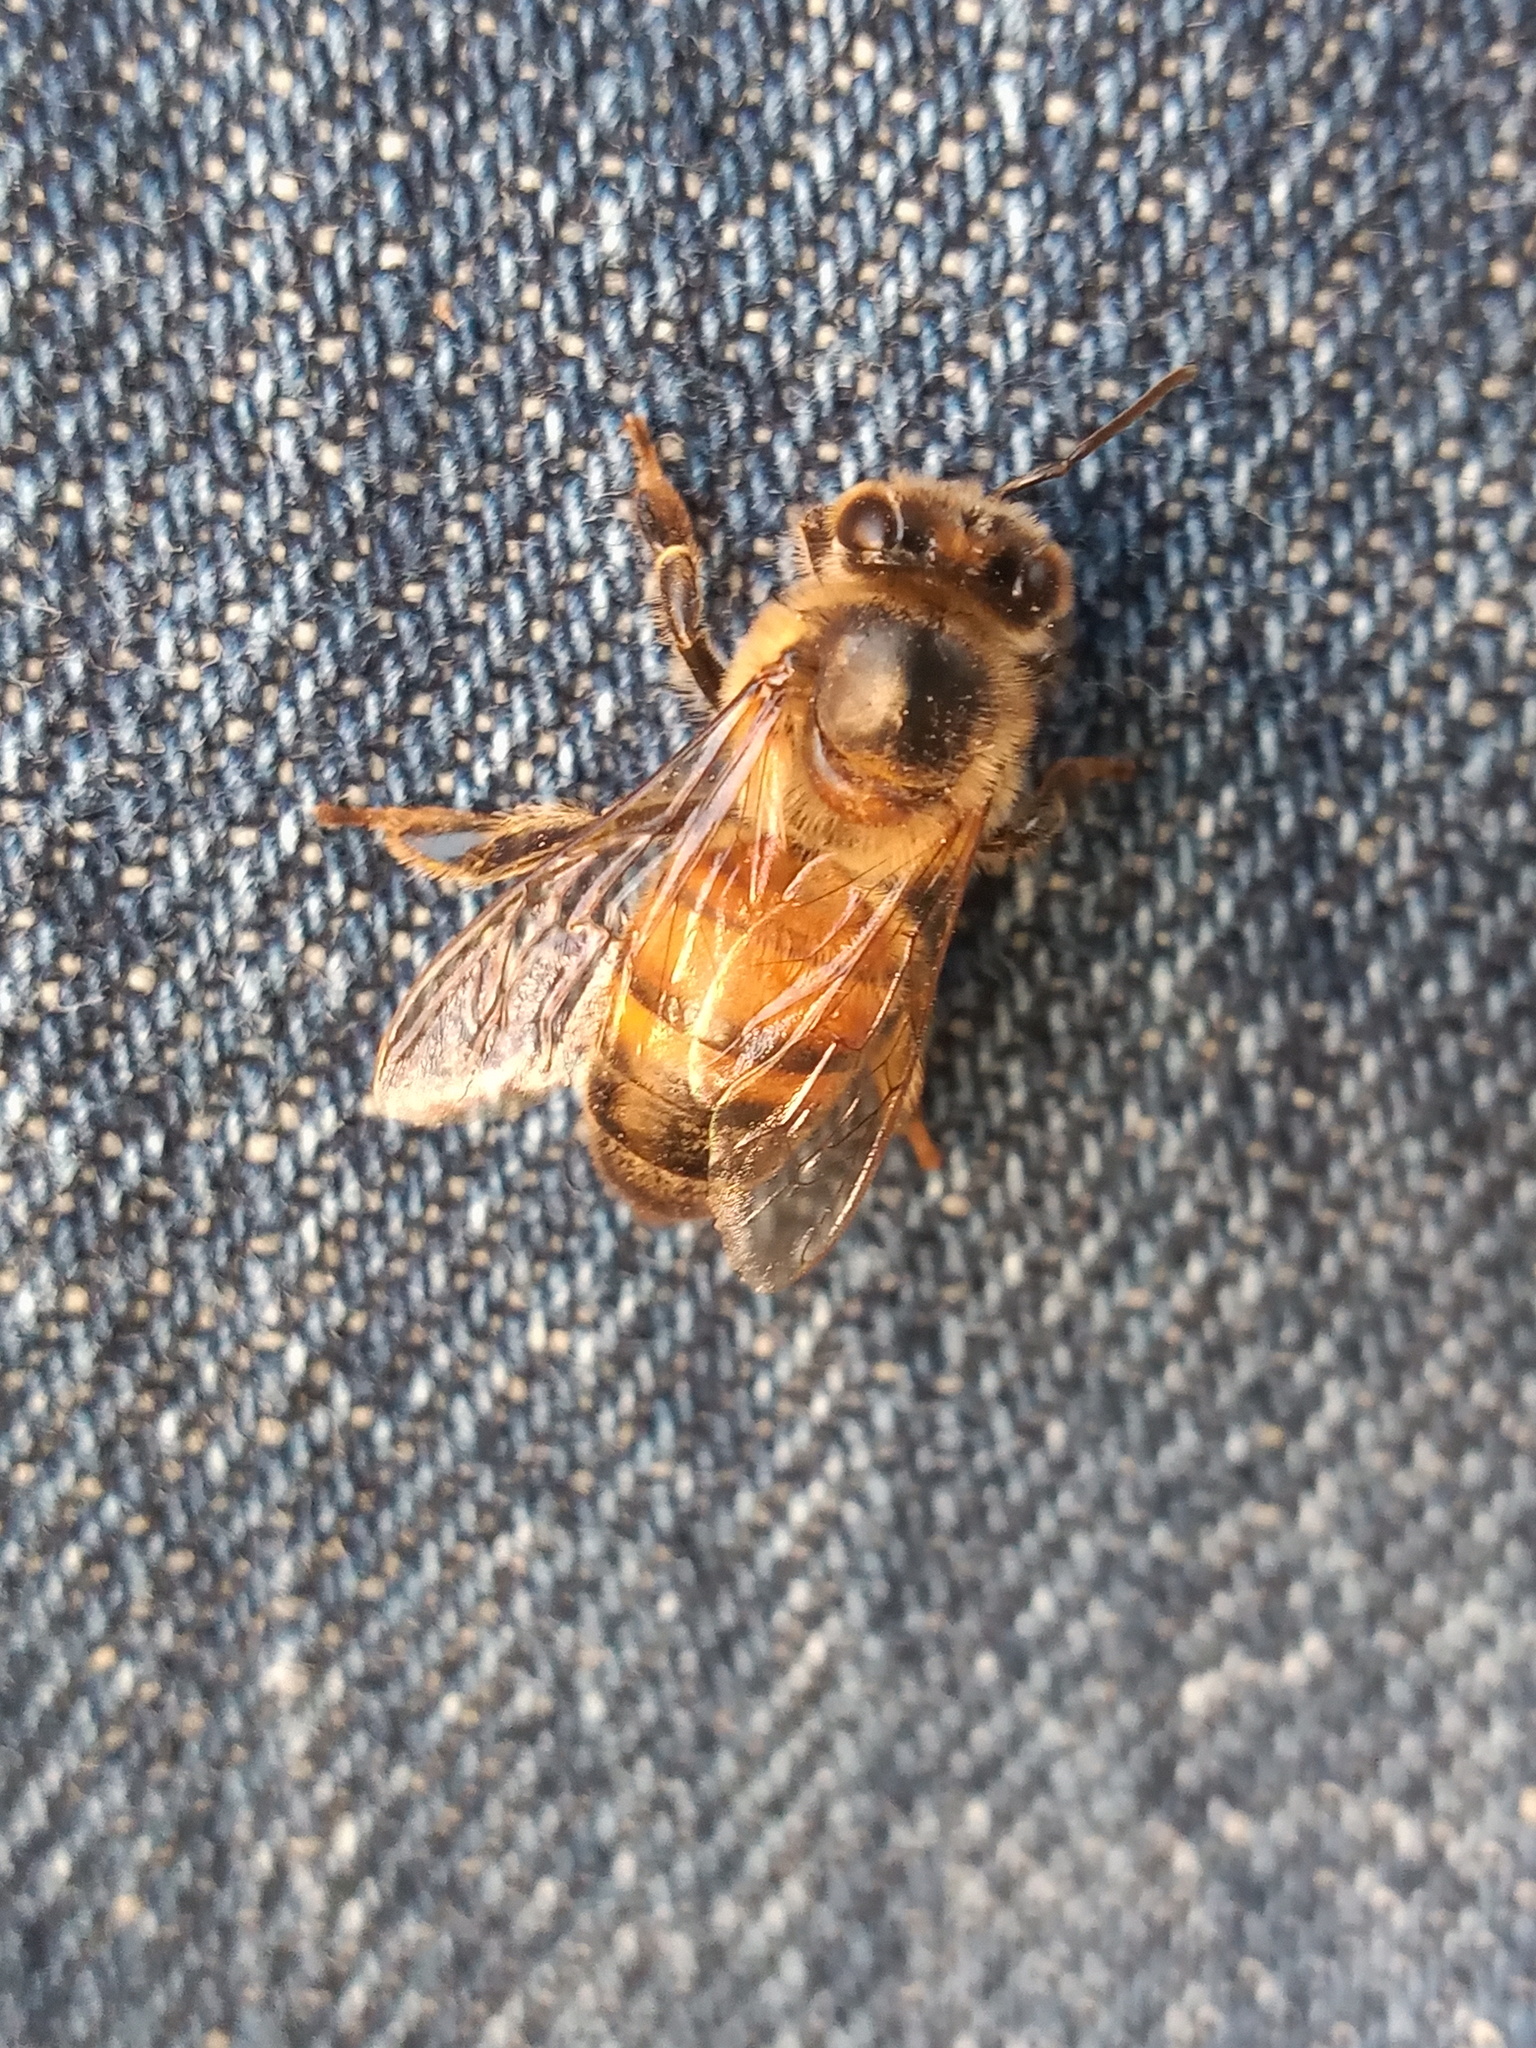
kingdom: Animalia
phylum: Arthropoda
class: Insecta
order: Hymenoptera
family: Apidae
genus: Apis
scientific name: Apis mellifera
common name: Honey bee
